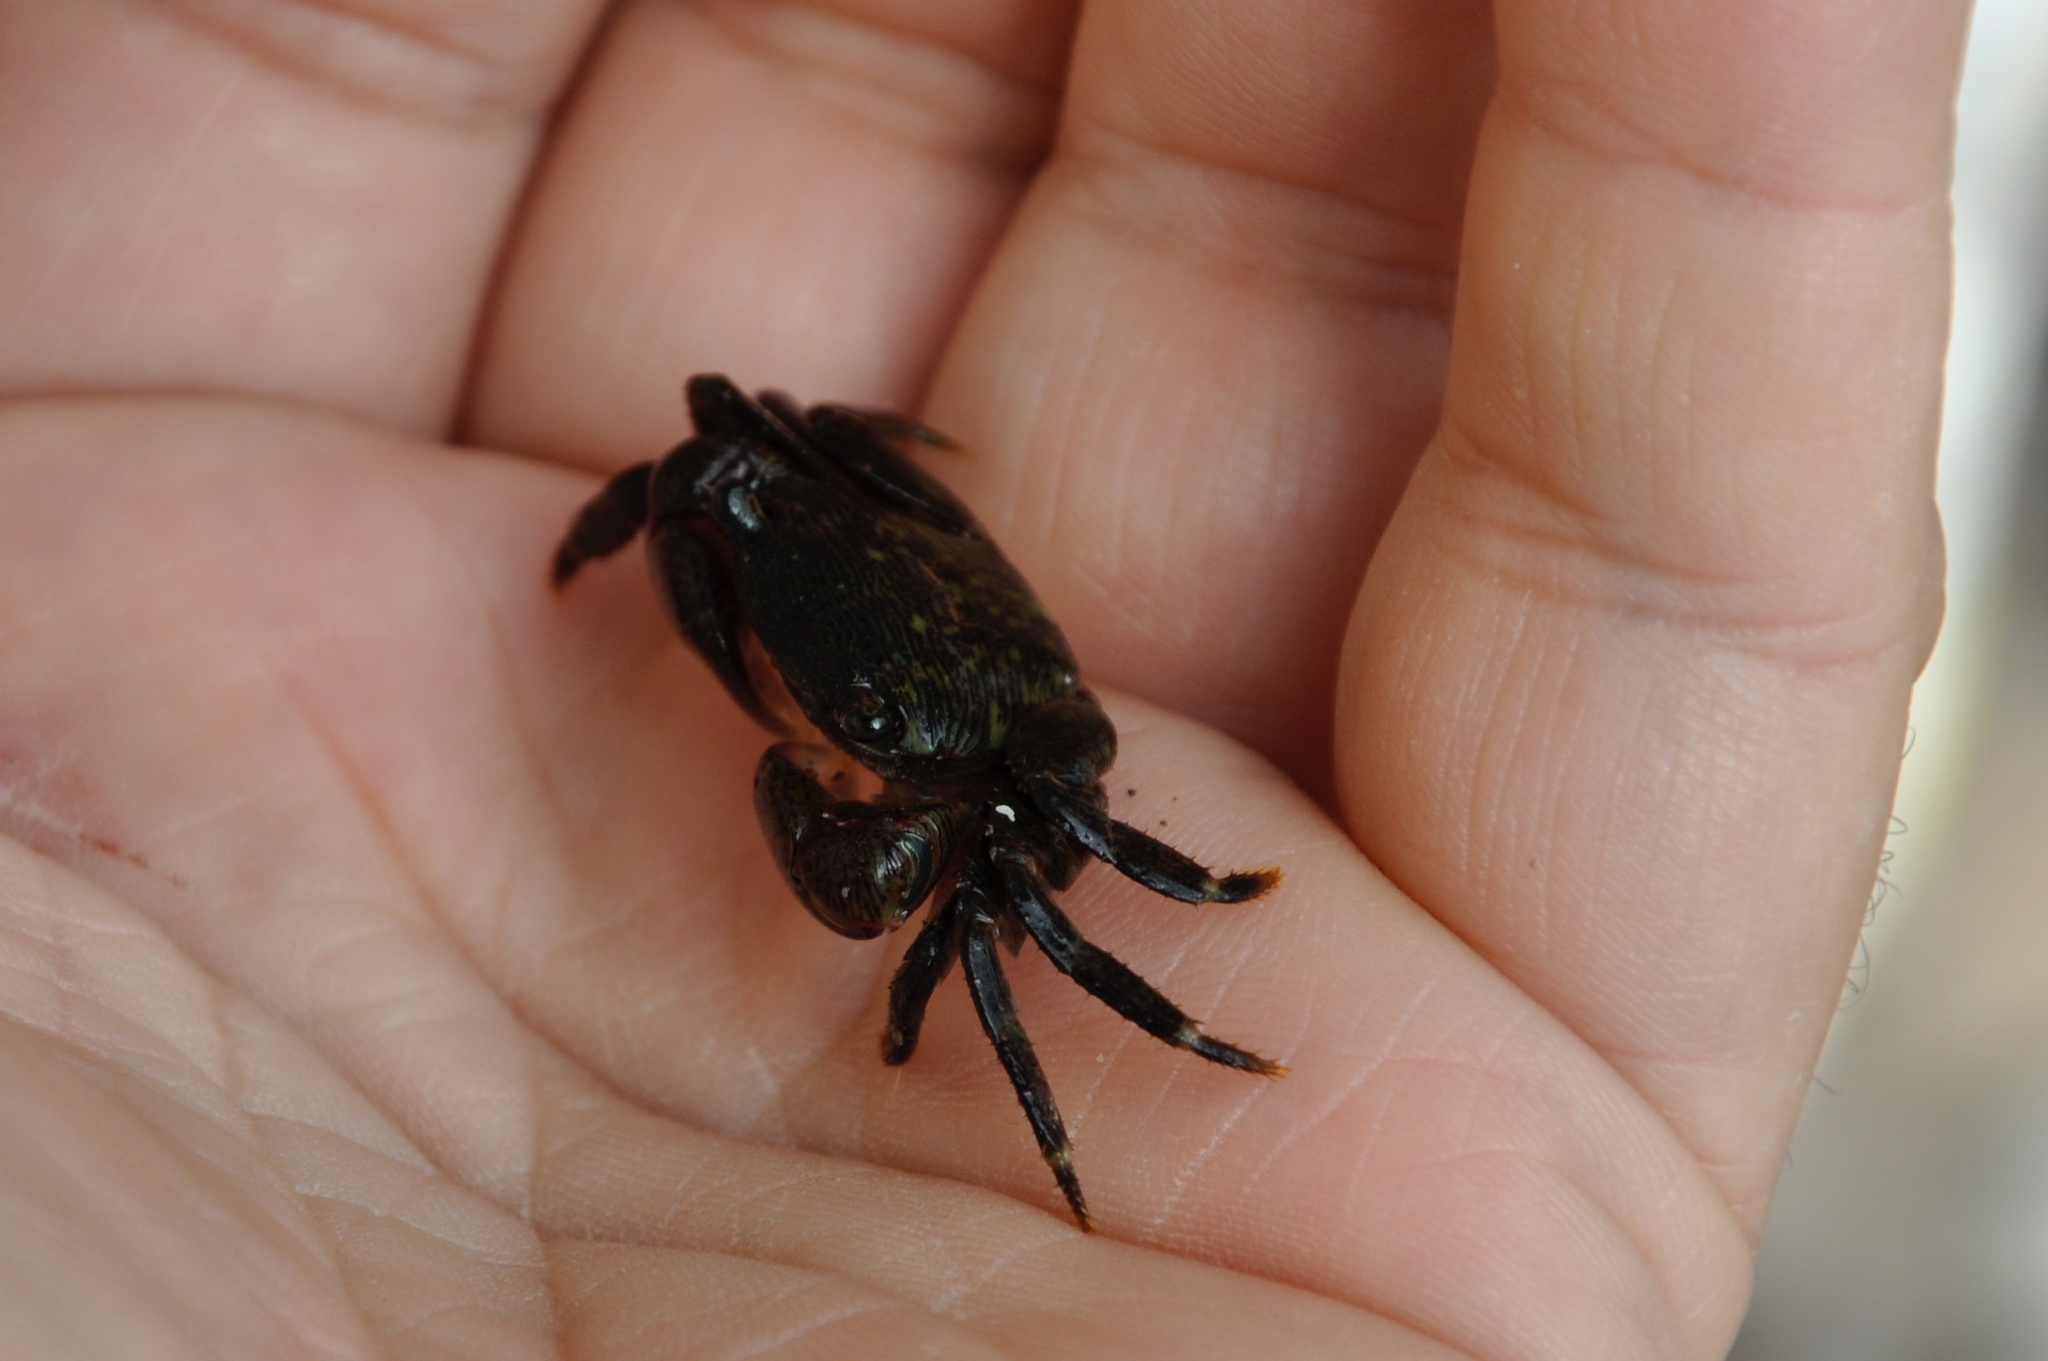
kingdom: Animalia
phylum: Arthropoda
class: Malacostraca
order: Decapoda
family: Grapsidae
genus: Pachygrapsus
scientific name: Pachygrapsus crassipes
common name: Striped shore crab
